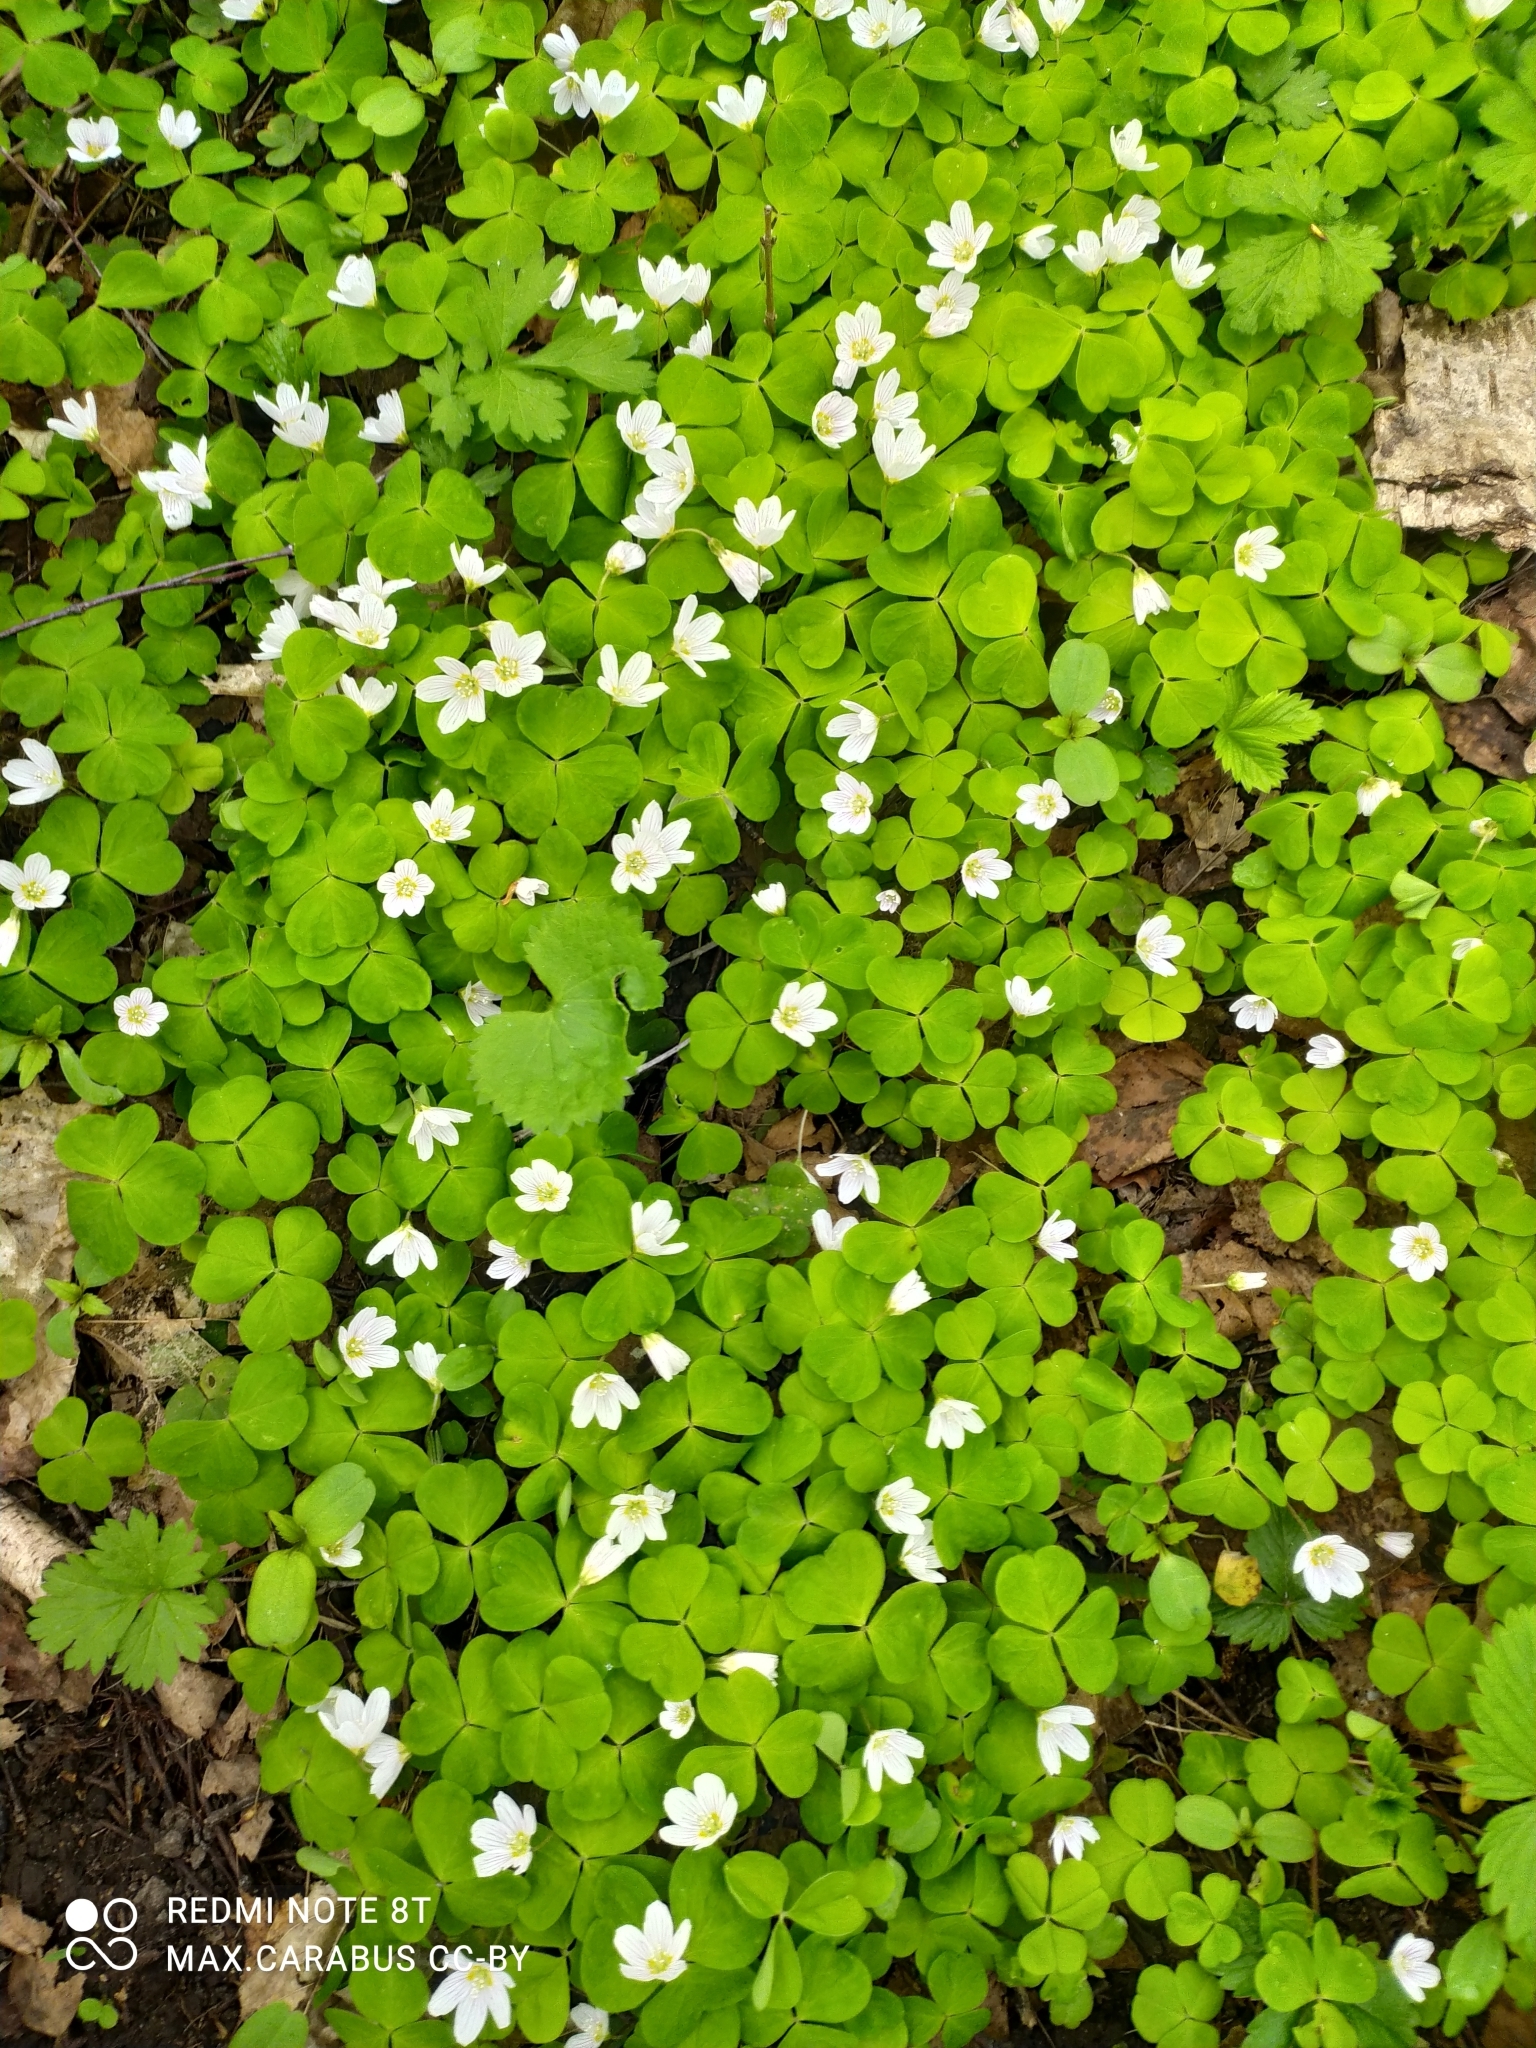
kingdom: Plantae
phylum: Tracheophyta
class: Magnoliopsida
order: Oxalidales
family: Oxalidaceae
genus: Oxalis
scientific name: Oxalis acetosella
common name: Wood-sorrel
